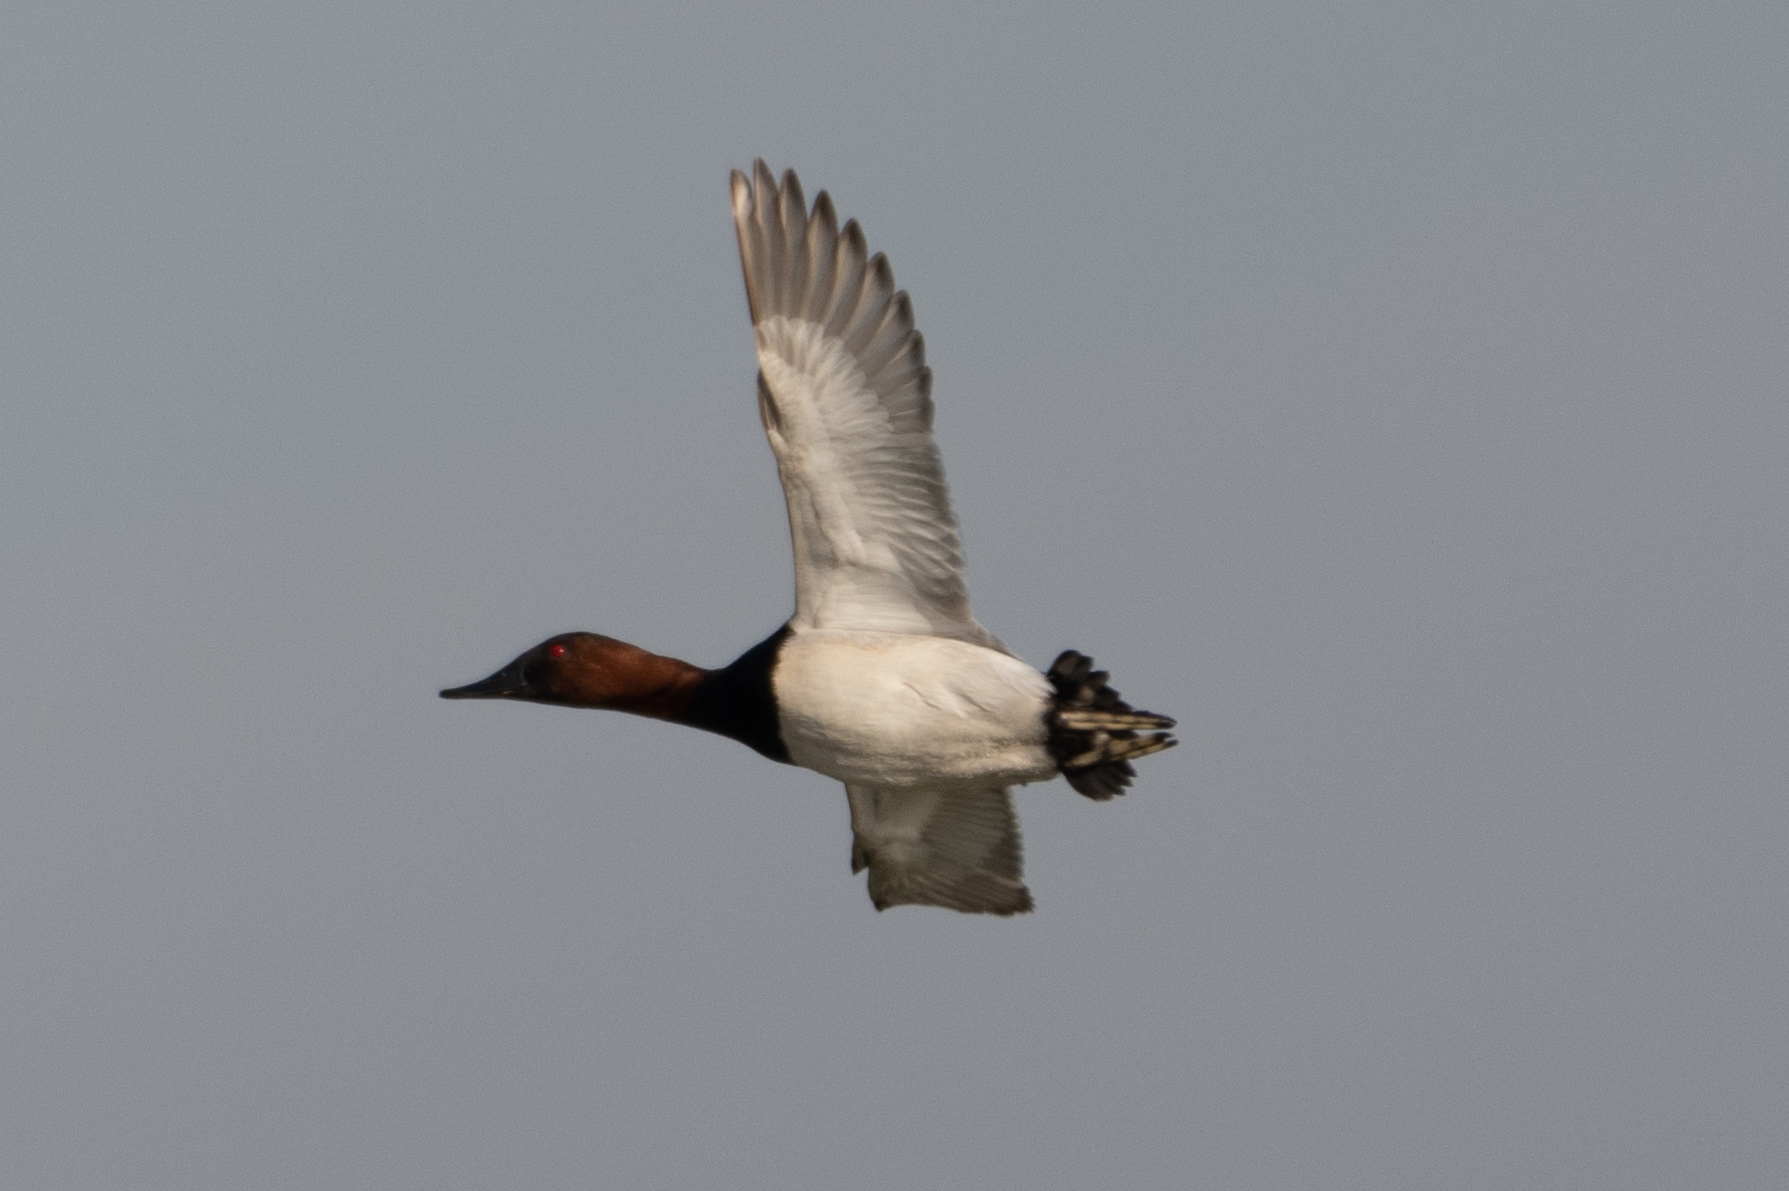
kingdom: Animalia
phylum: Chordata
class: Aves
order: Anseriformes
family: Anatidae
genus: Aythya
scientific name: Aythya valisineria
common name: Canvasback
